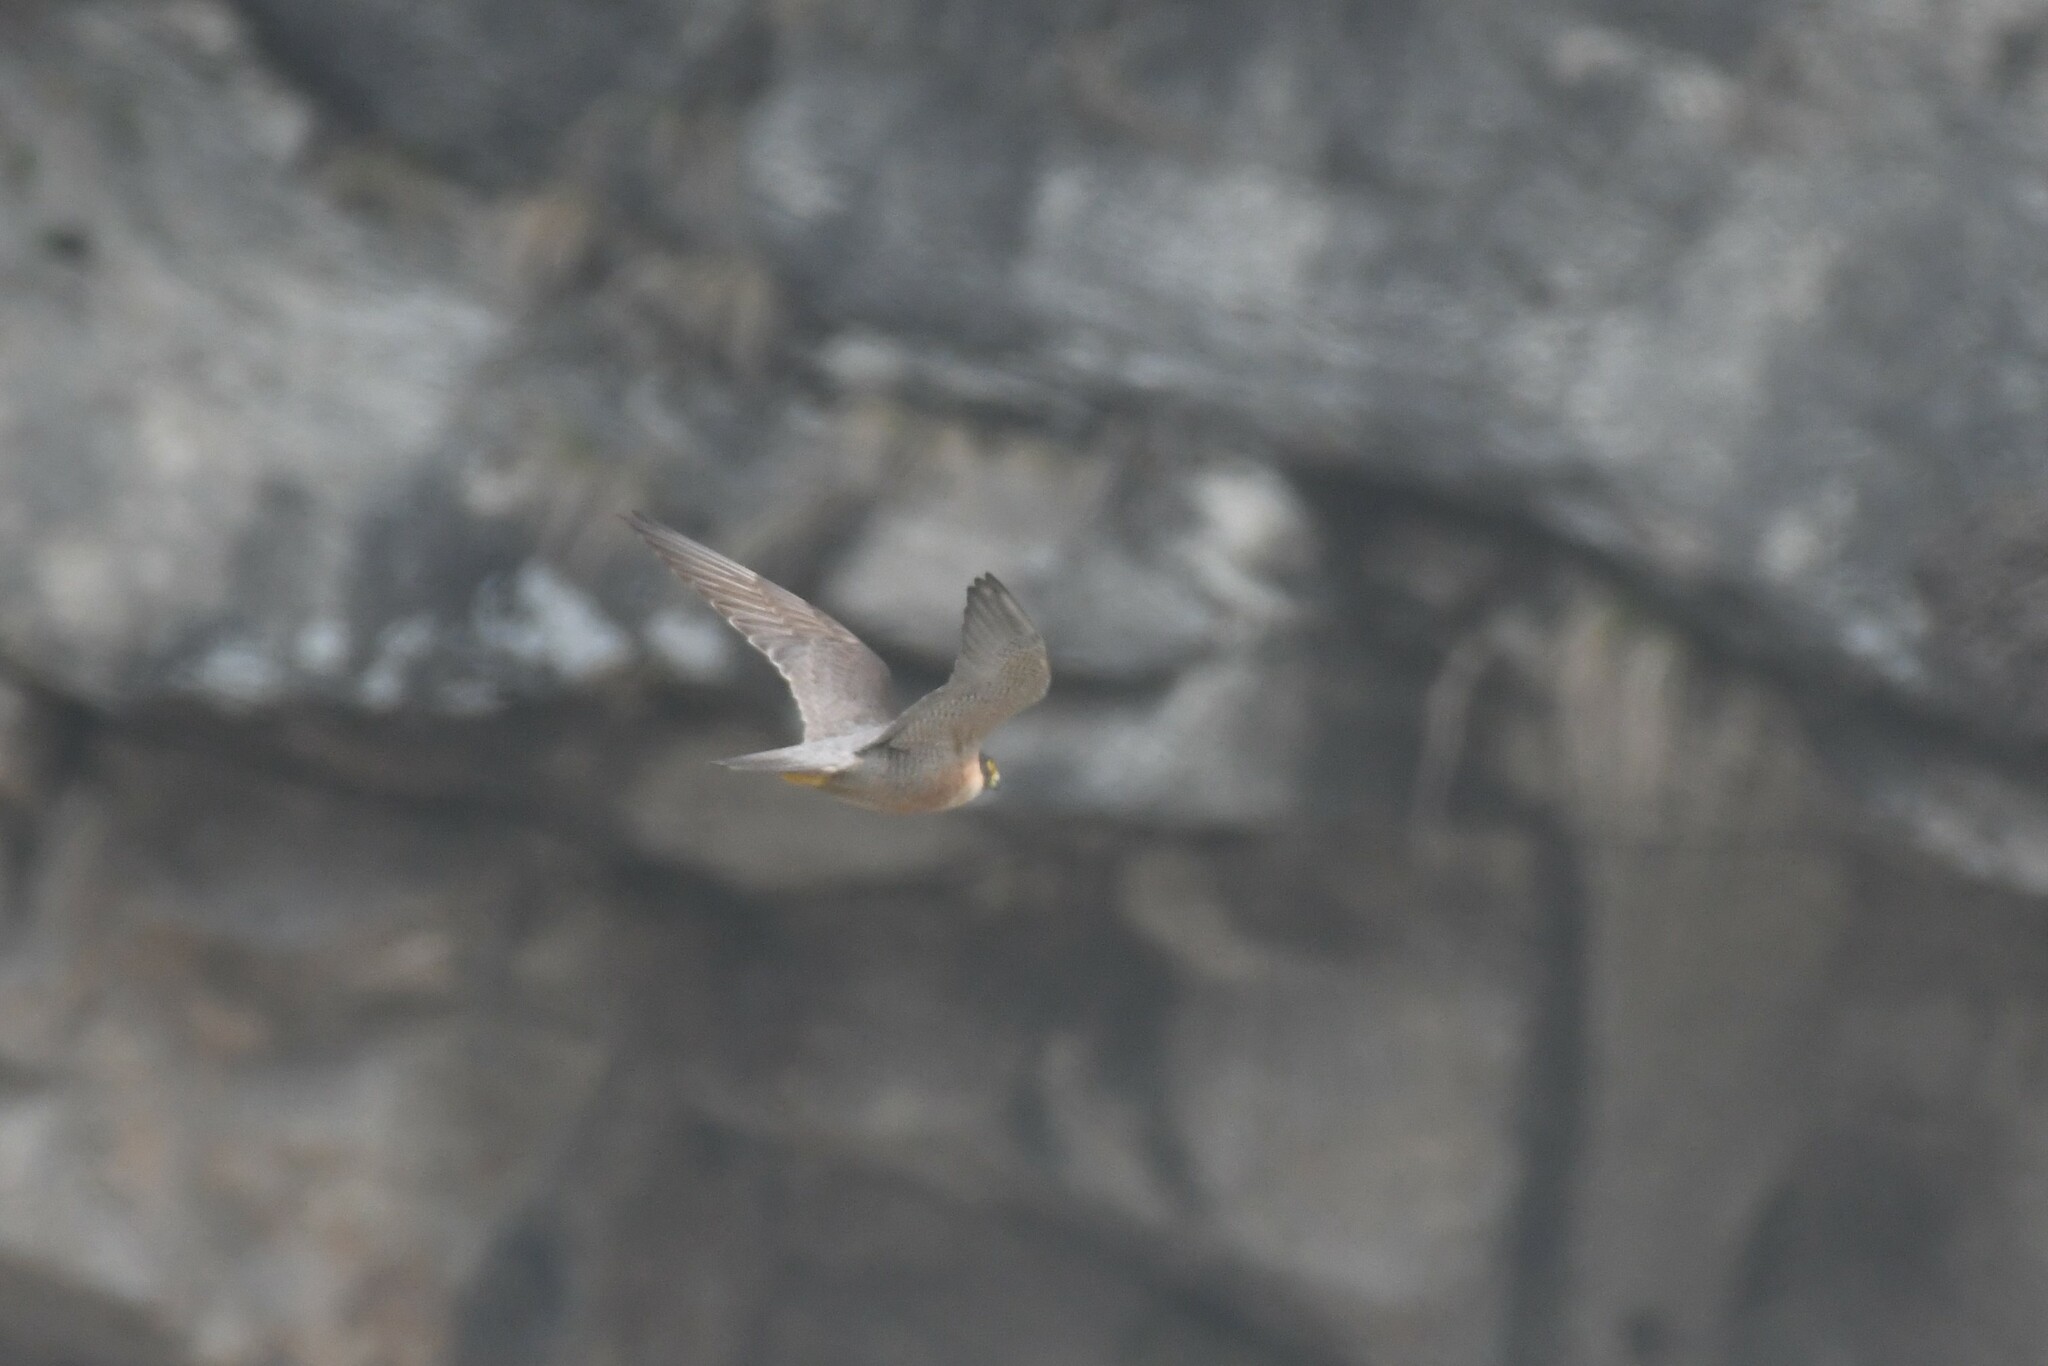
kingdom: Animalia
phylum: Chordata
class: Aves
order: Falconiformes
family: Falconidae
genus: Falco
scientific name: Falco peregrinus
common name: Peregrine falcon
